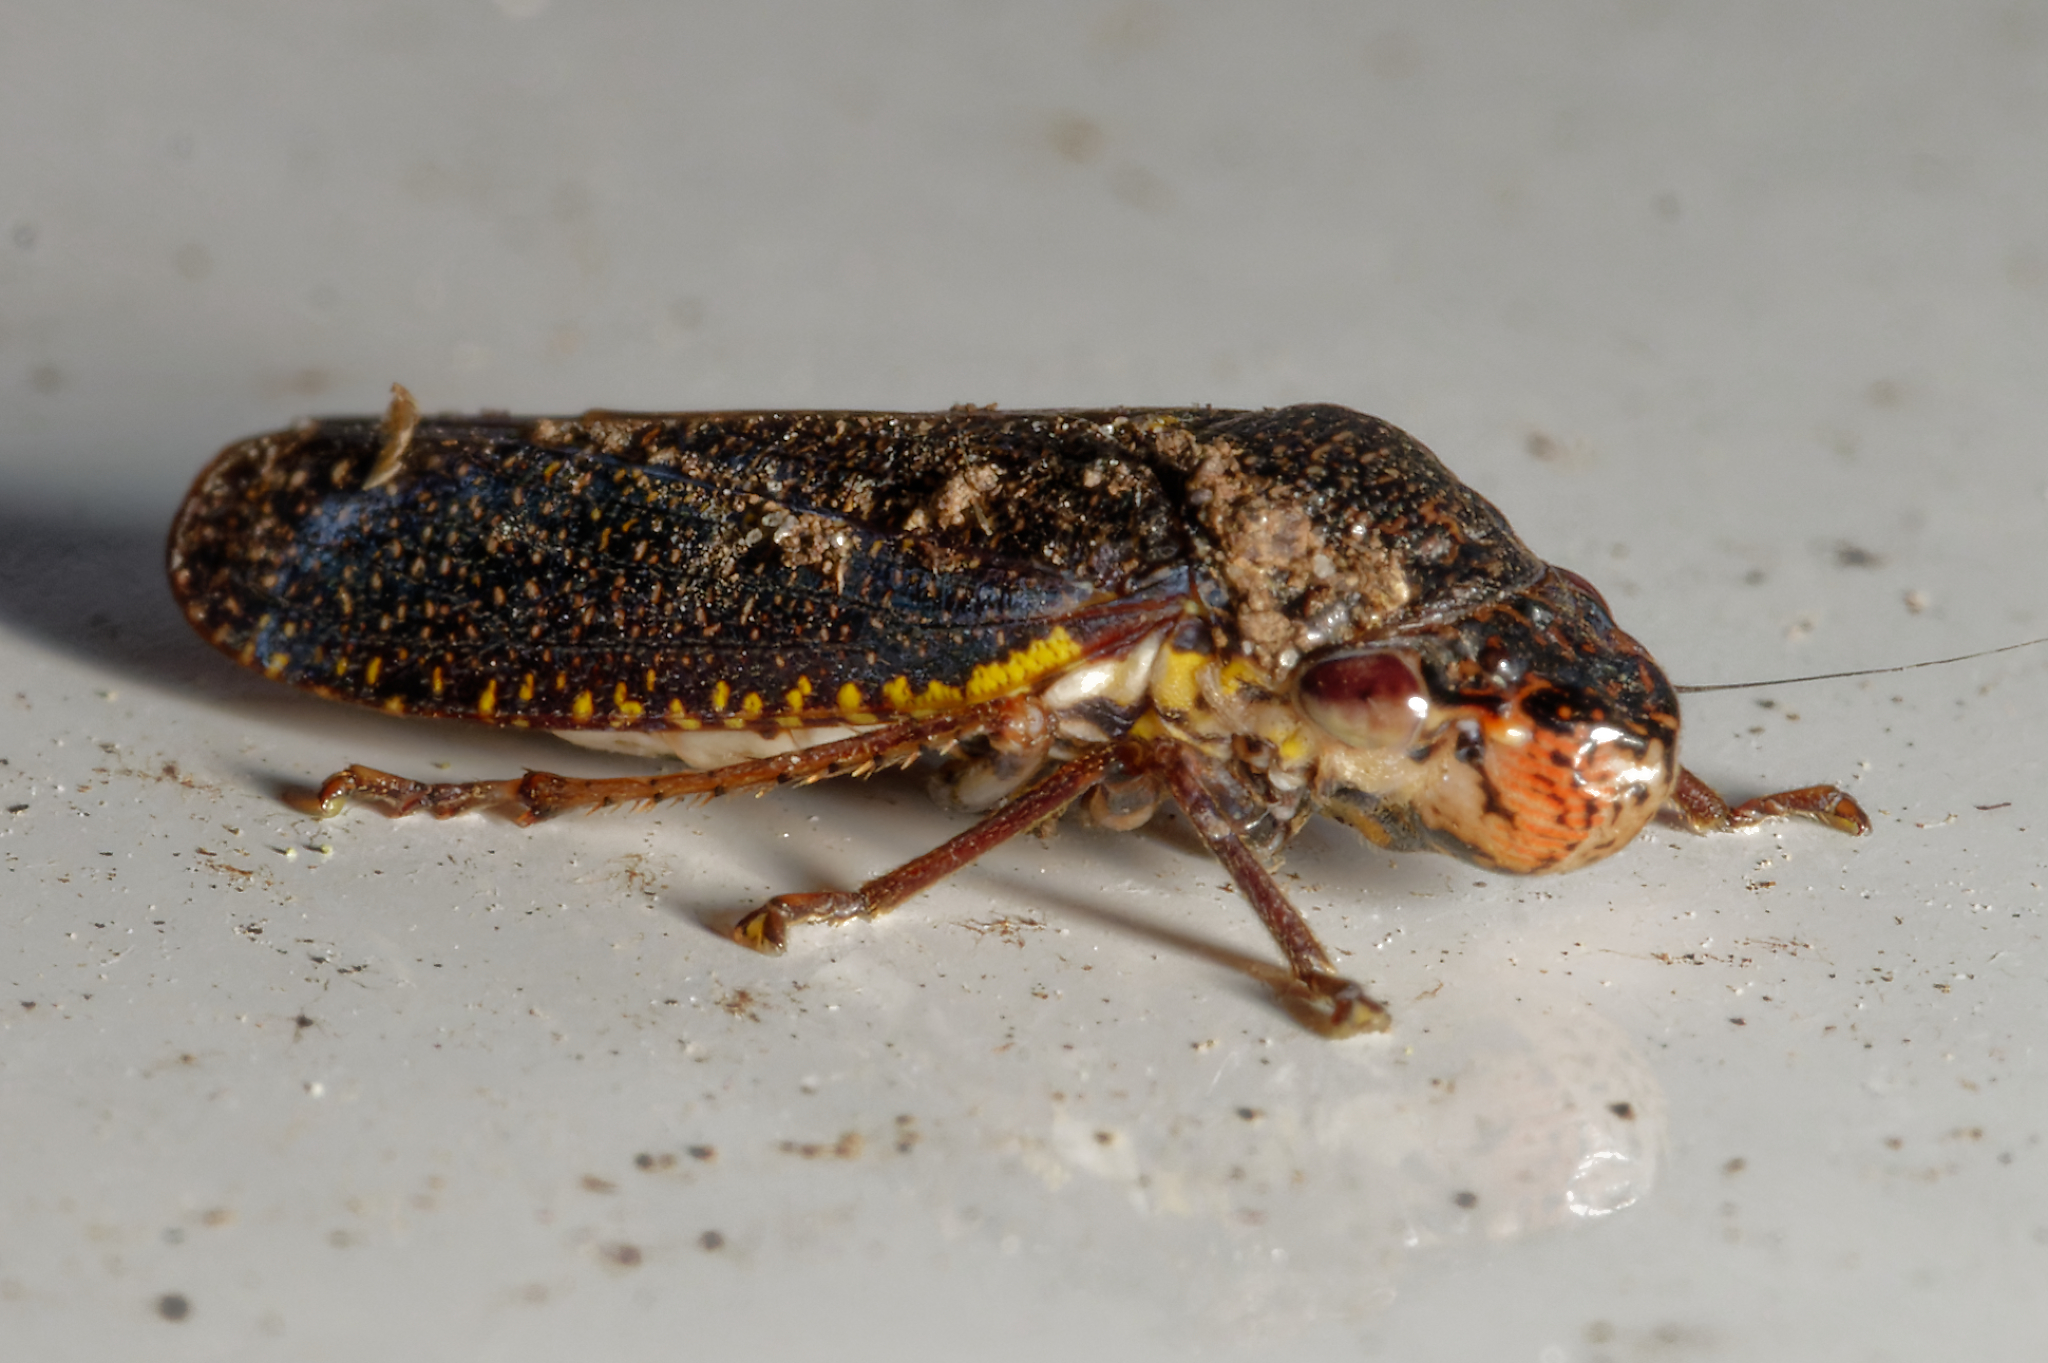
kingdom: Animalia
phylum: Arthropoda
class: Insecta
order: Hemiptera
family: Cicadellidae
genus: Paraulacizes
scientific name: Paraulacizes irrorata
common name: Speckled sharpshooter
